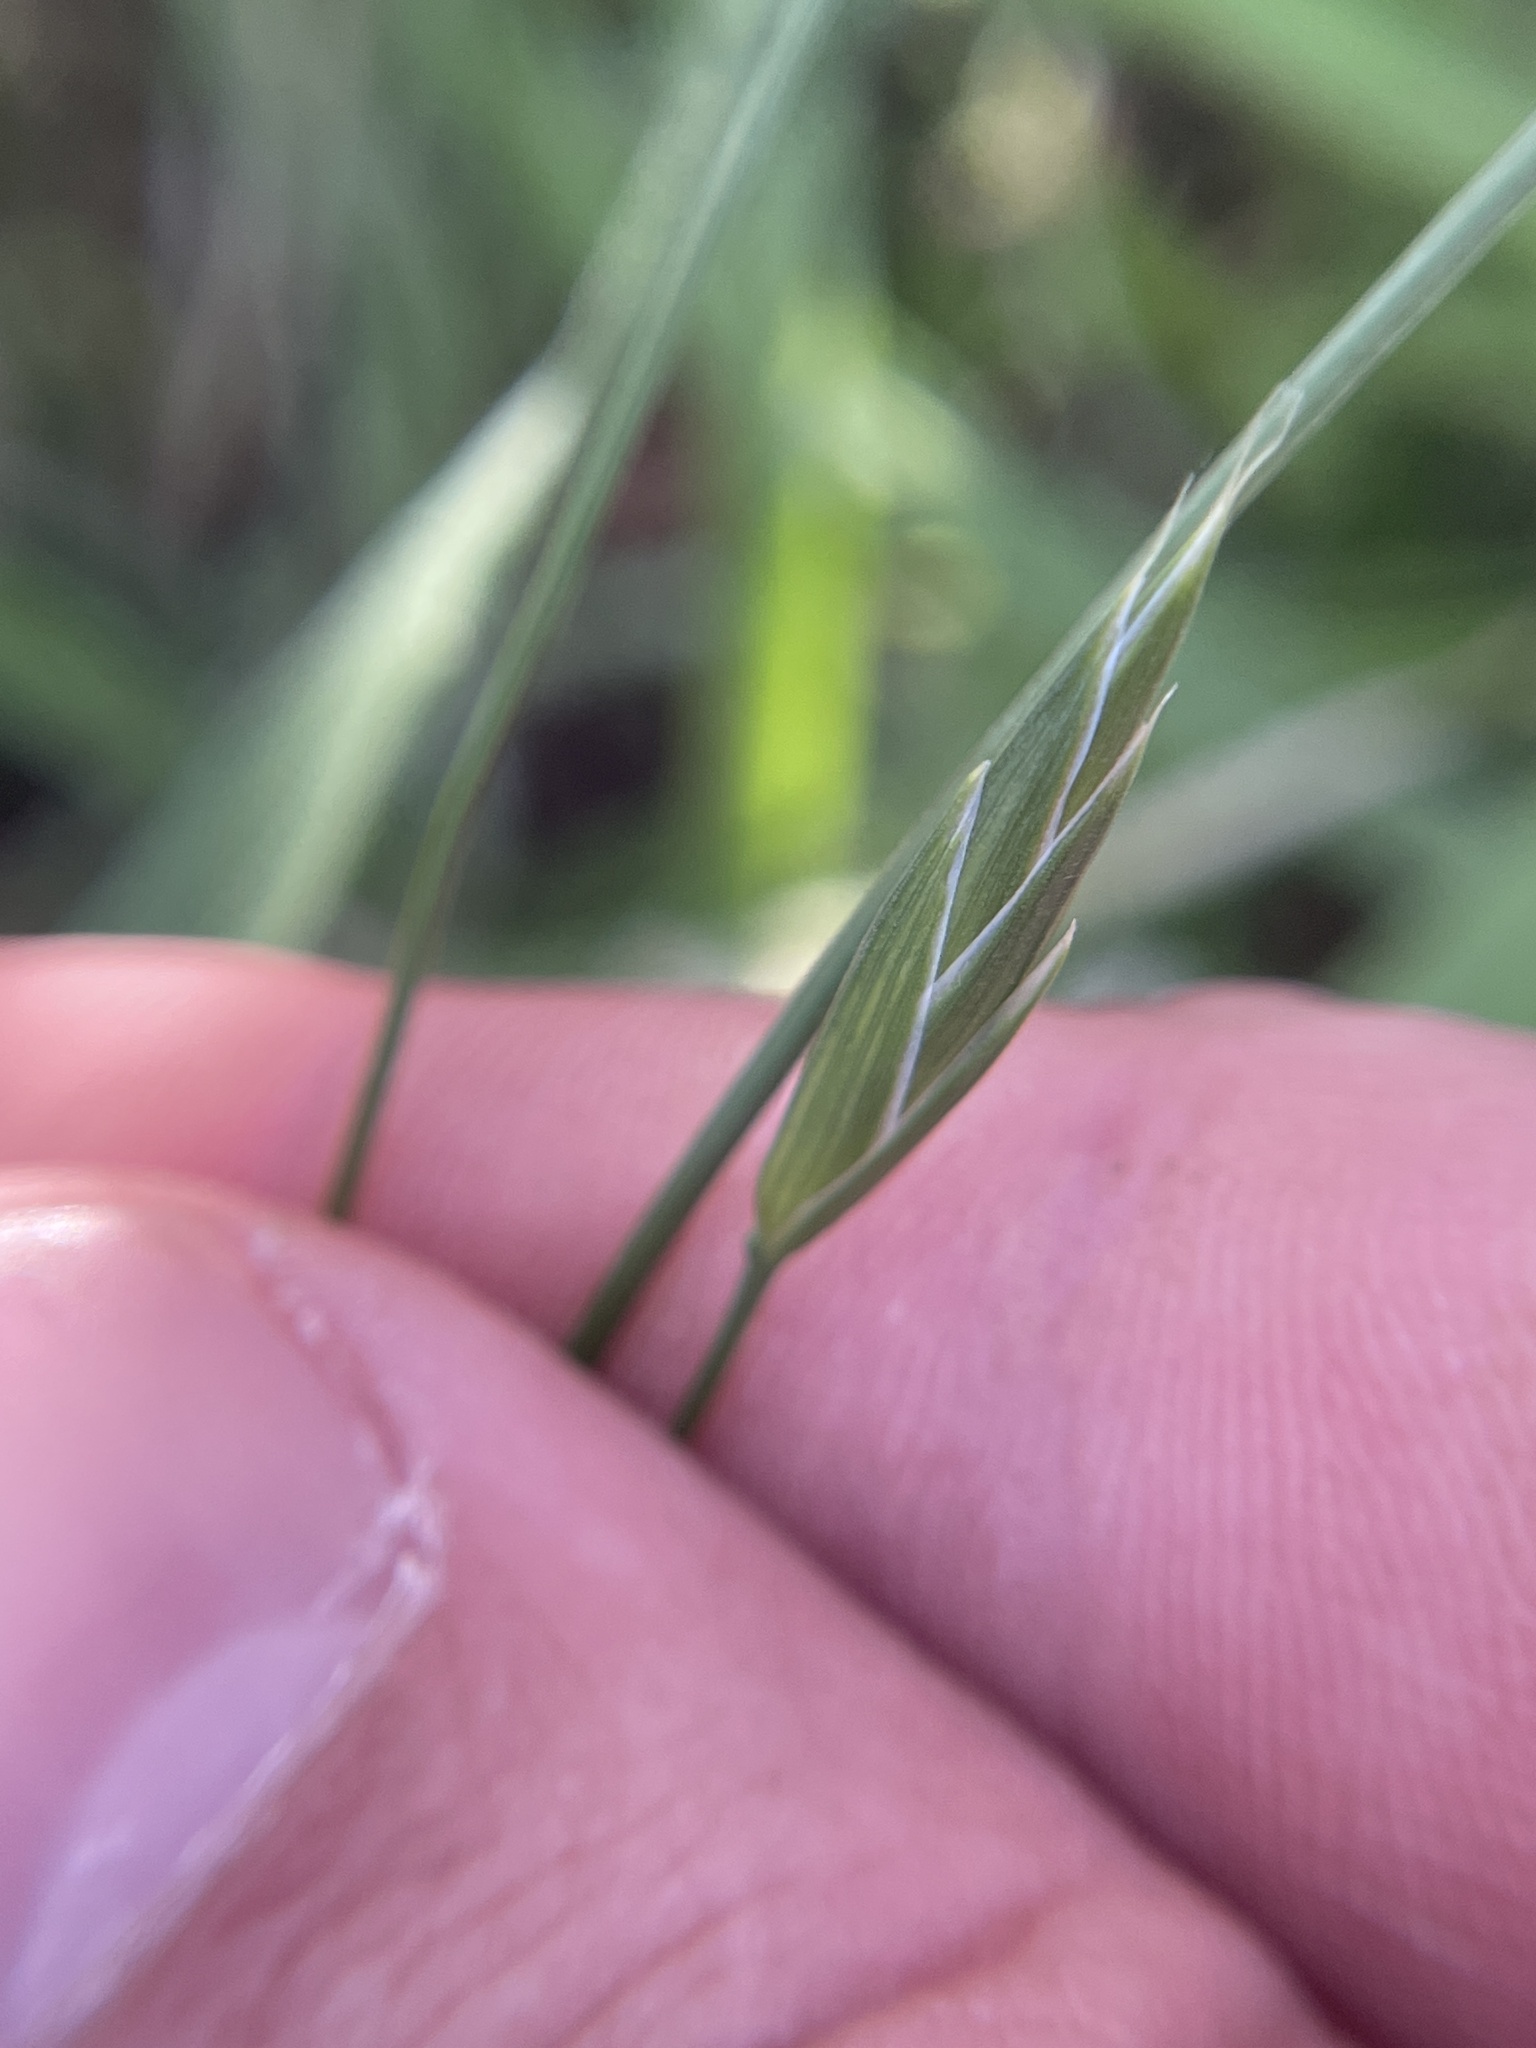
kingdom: Plantae
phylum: Tracheophyta
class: Liliopsida
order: Poales
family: Poaceae
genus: Bromus
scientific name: Bromus catharticus
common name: Rescuegrass
